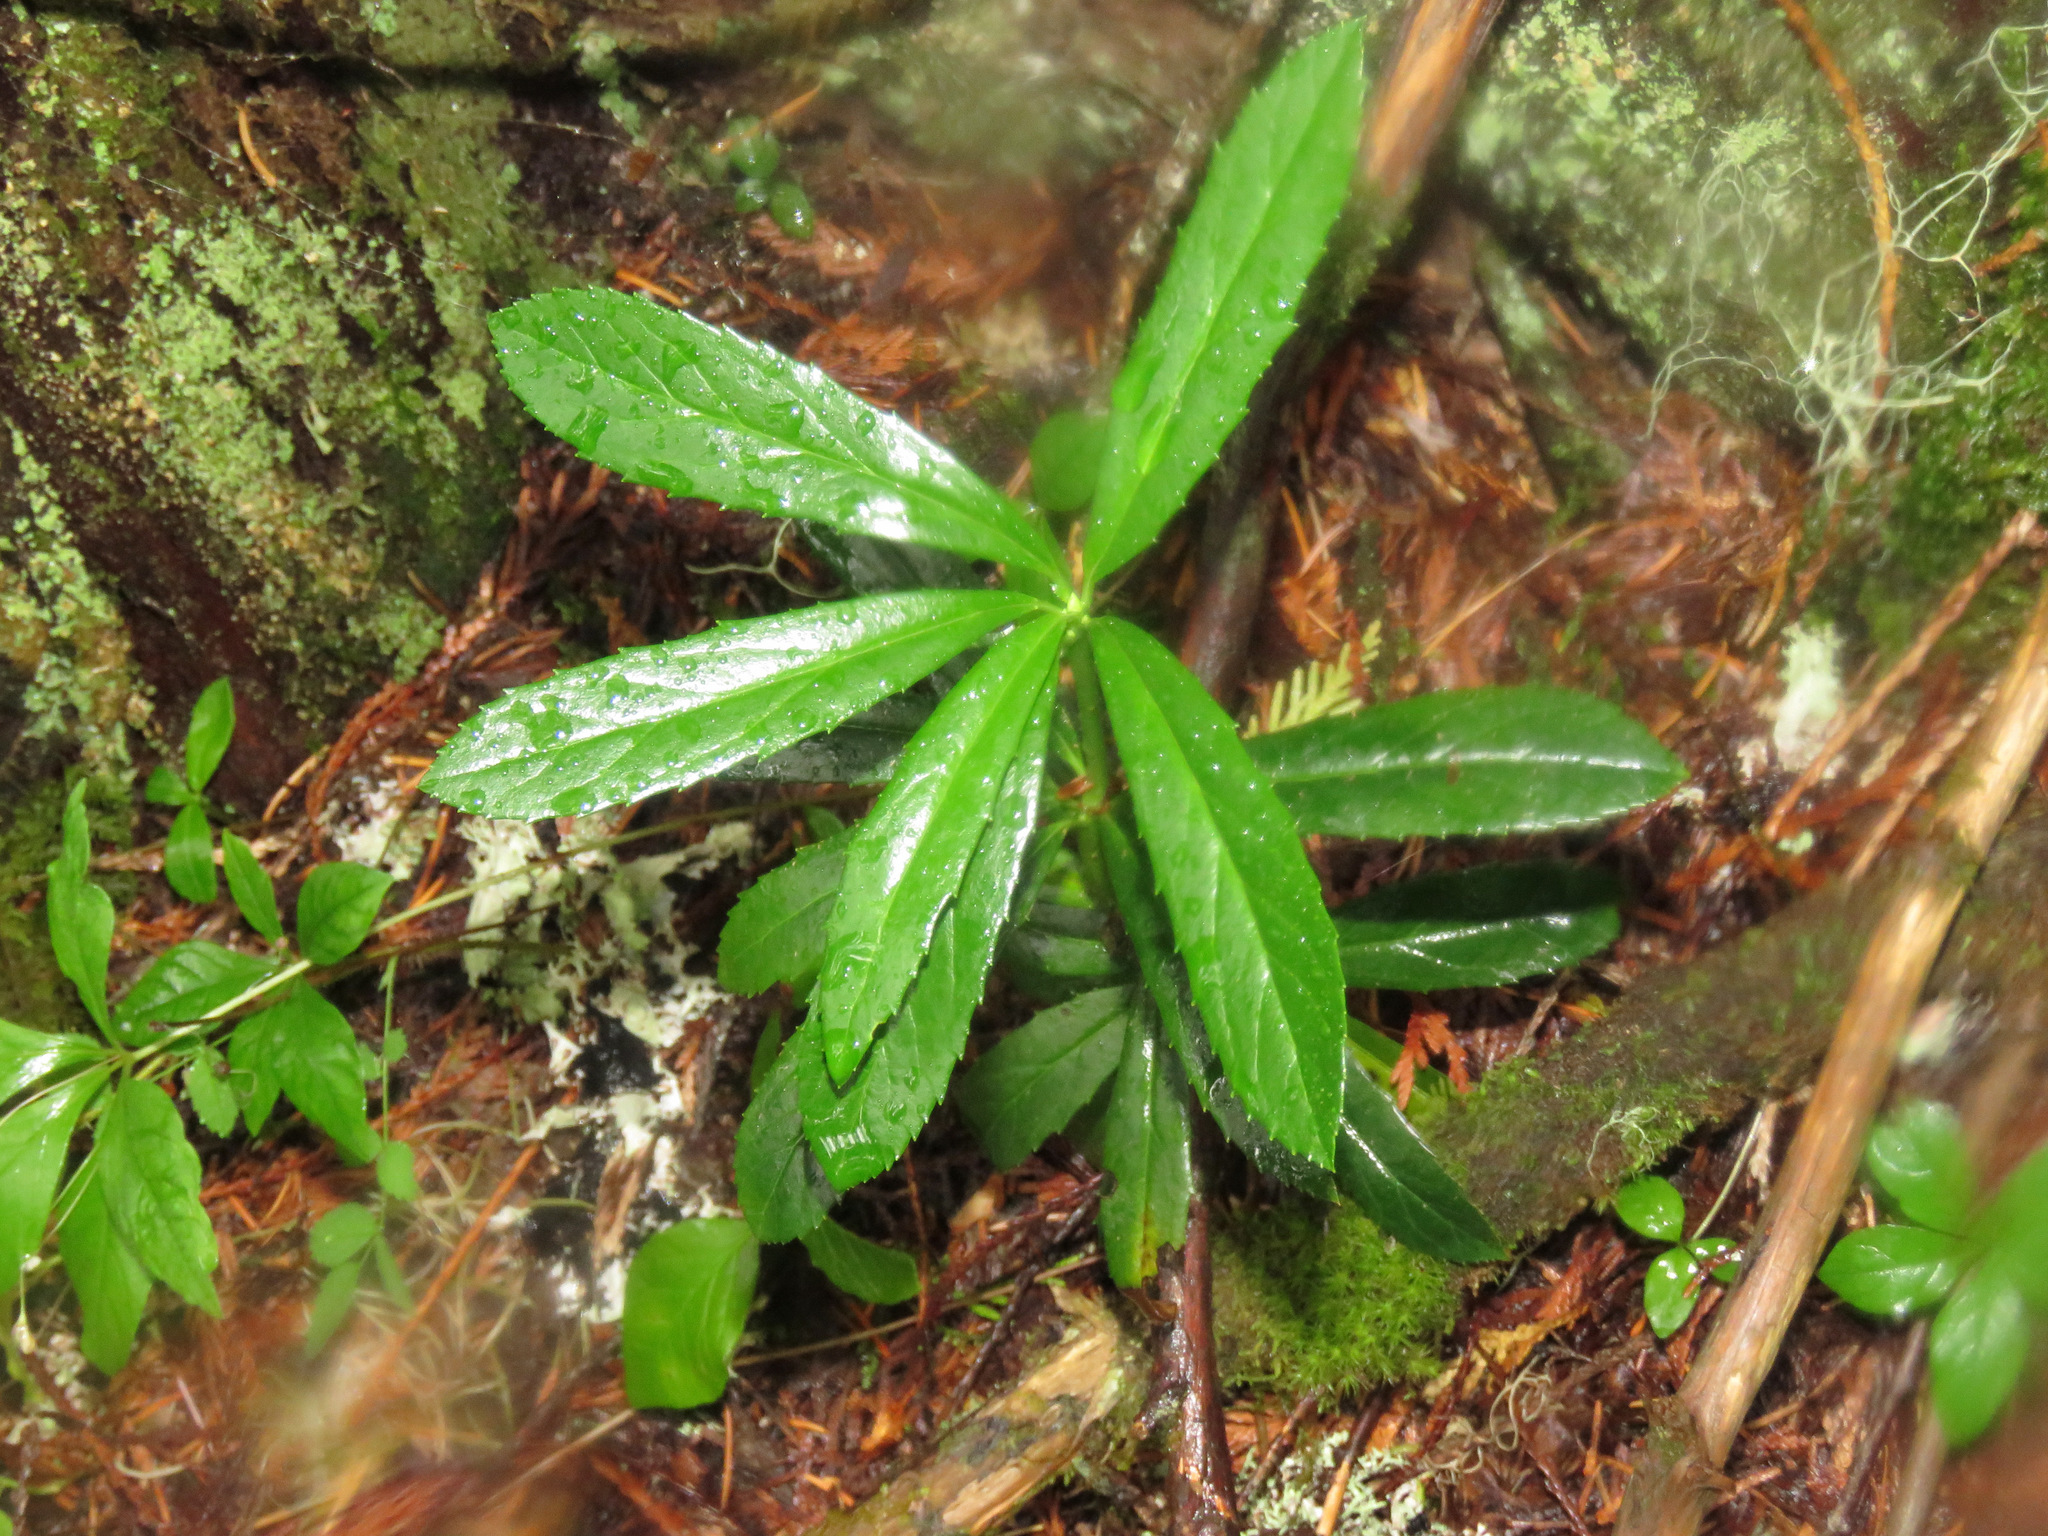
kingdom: Plantae
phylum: Tracheophyta
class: Magnoliopsida
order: Ericales
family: Ericaceae
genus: Chimaphila
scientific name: Chimaphila umbellata
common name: Pipsissewa
